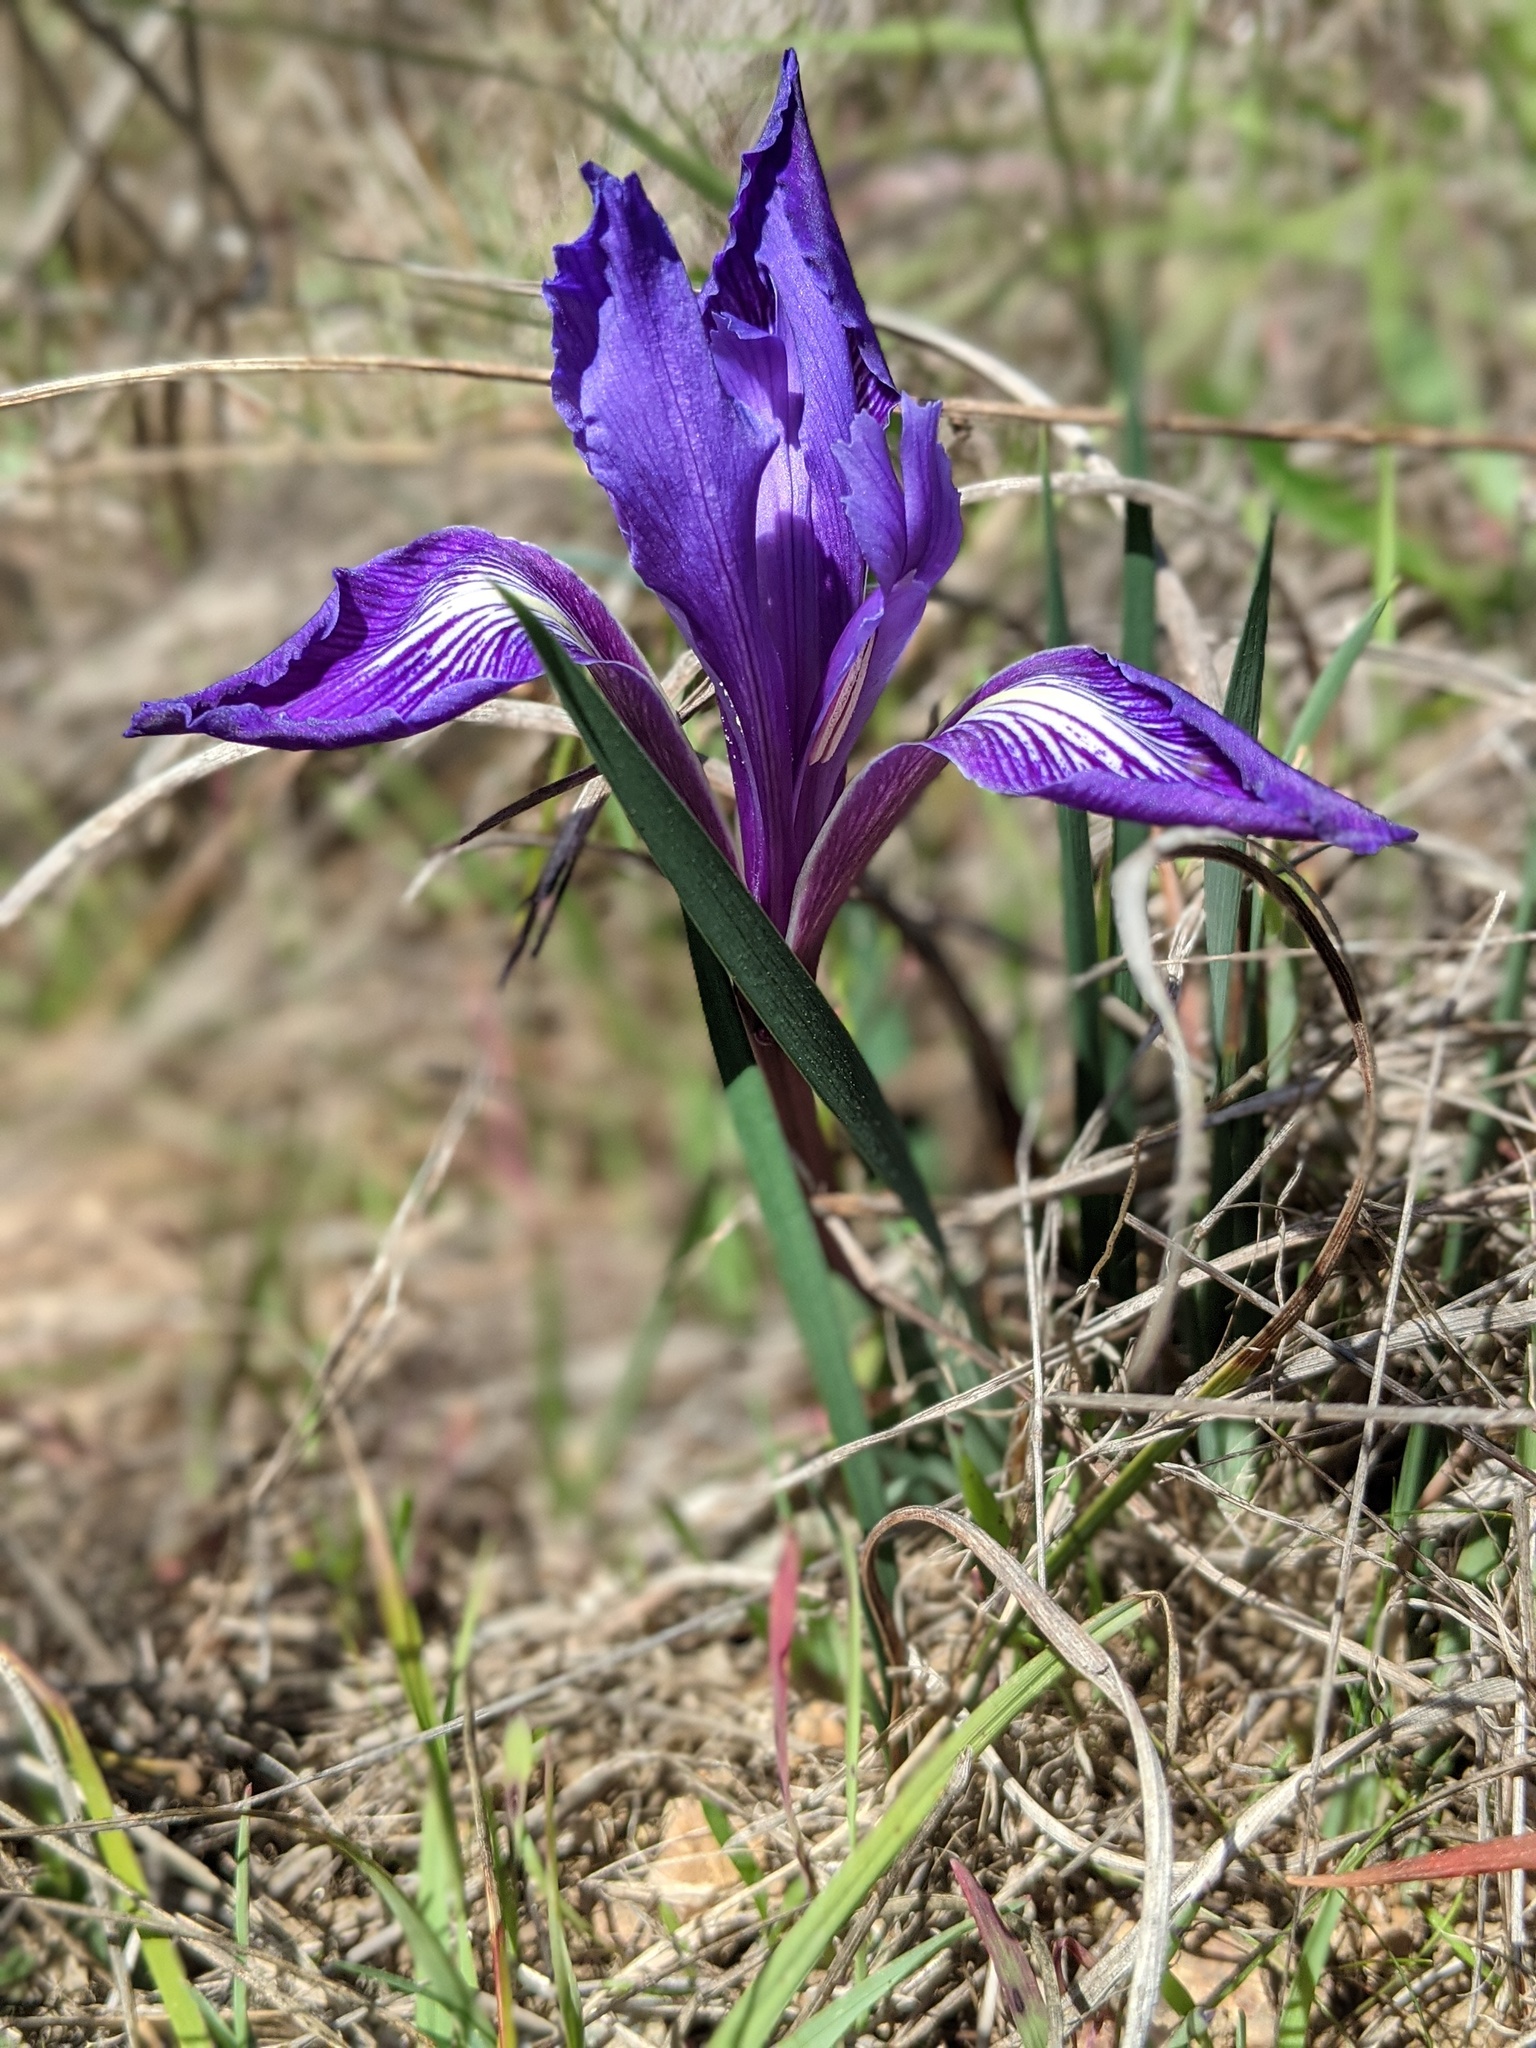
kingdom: Plantae
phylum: Tracheophyta
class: Liliopsida
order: Asparagales
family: Iridaceae
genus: Iris
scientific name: Iris macrosiphon
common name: Ground iris
